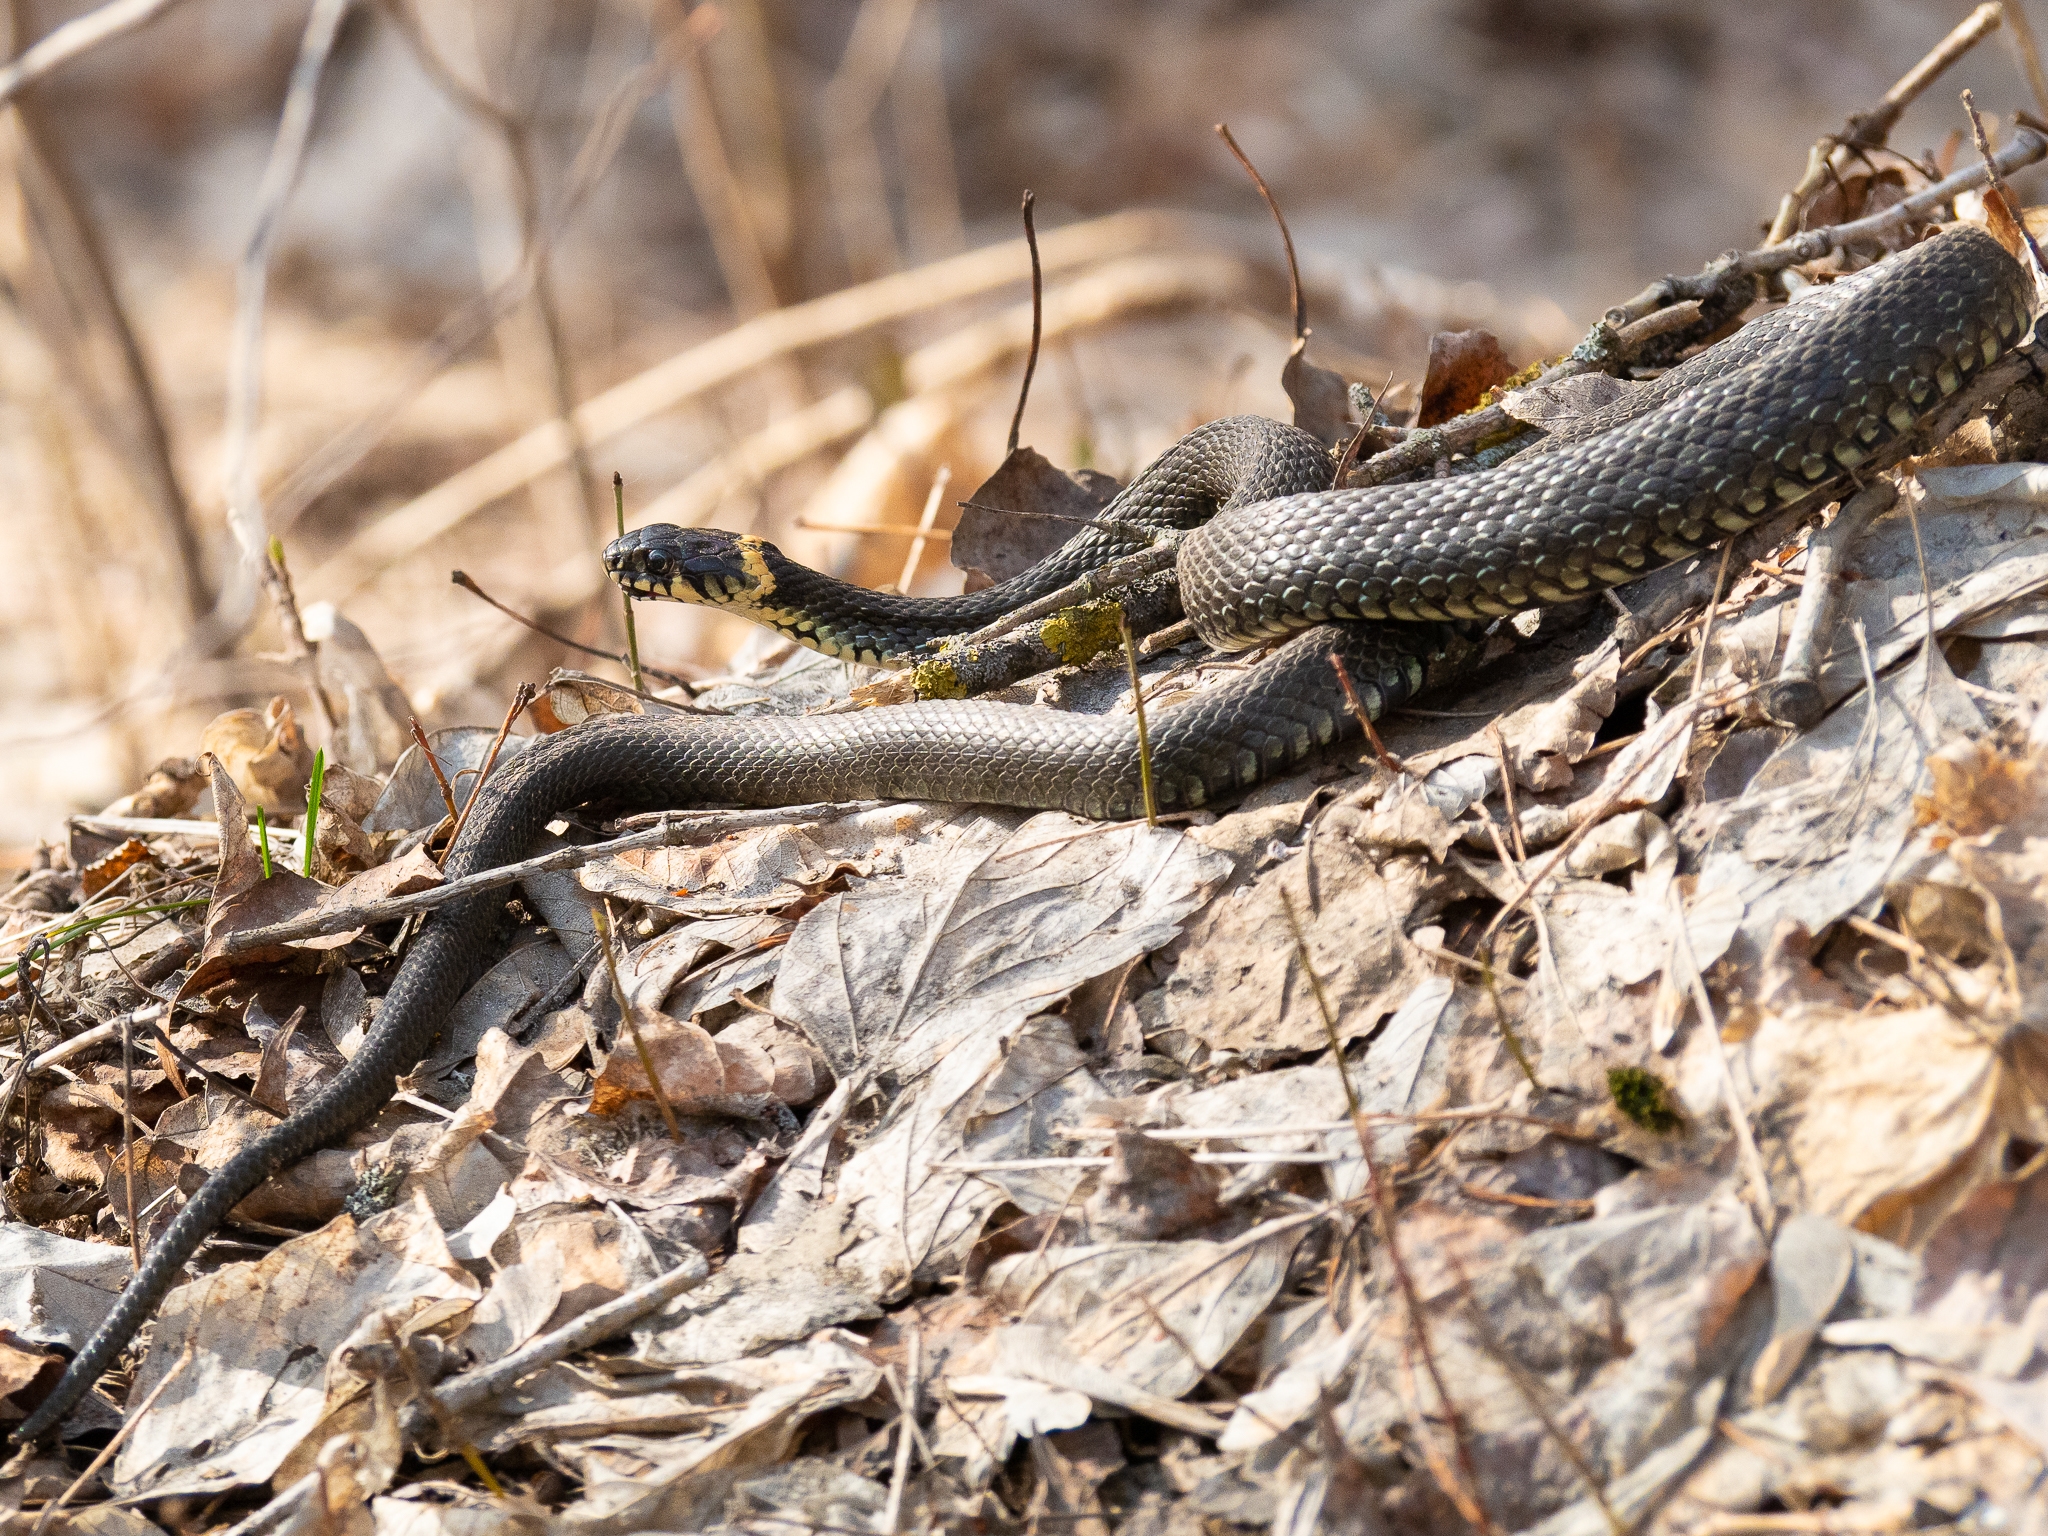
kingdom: Animalia
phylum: Chordata
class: Squamata
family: Colubridae
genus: Natrix
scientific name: Natrix natrix
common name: Grass snake
